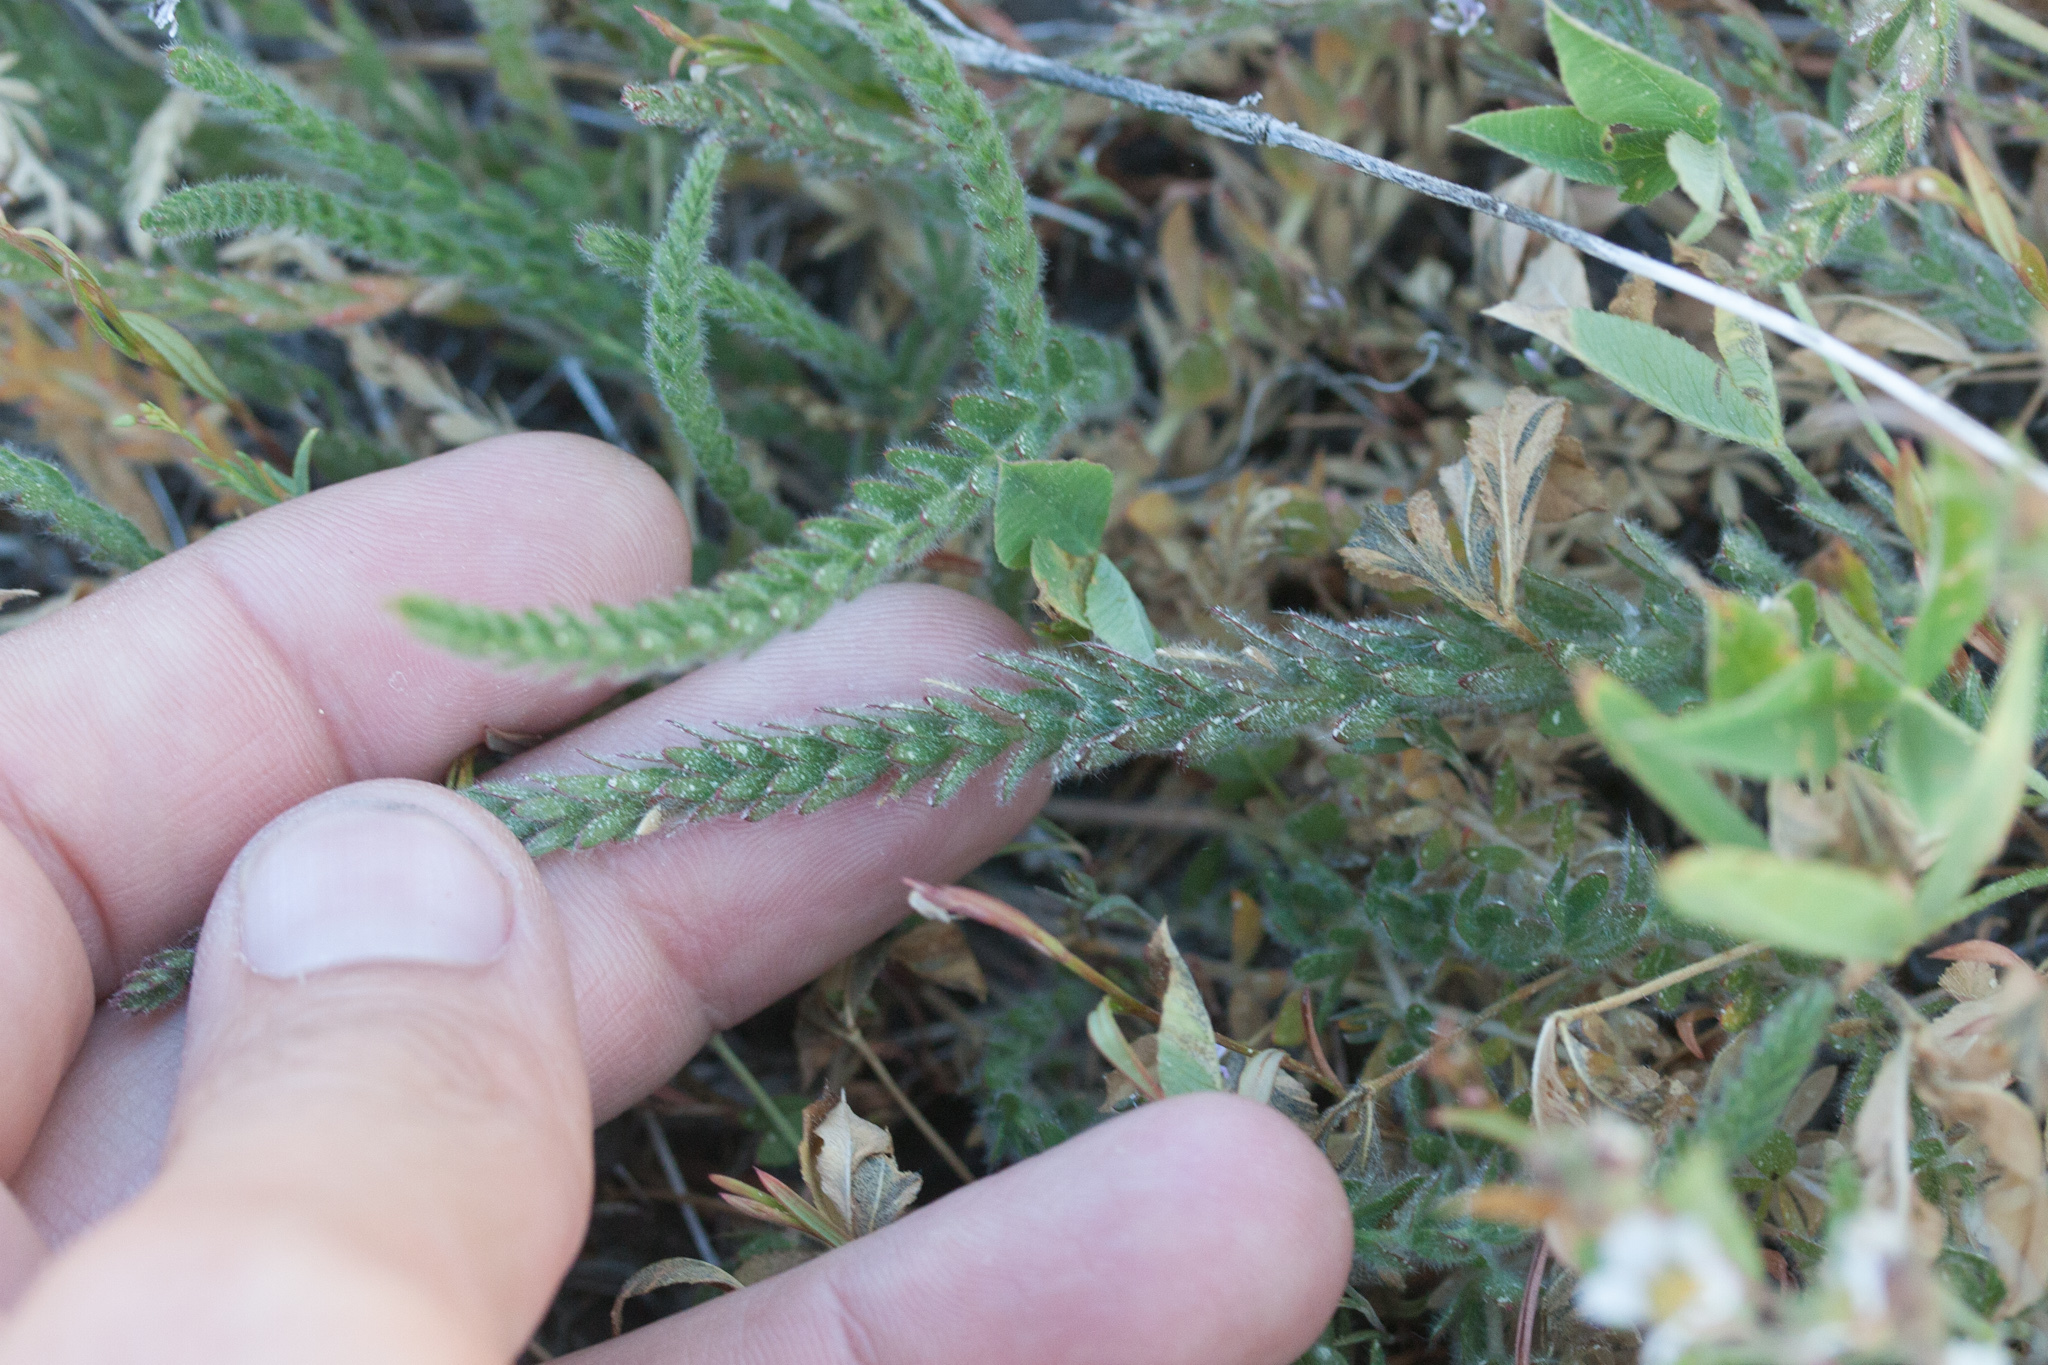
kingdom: Plantae
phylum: Tracheophyta
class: Magnoliopsida
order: Rosales
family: Rosaceae
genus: Potentilla
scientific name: Potentilla sericoleuca
